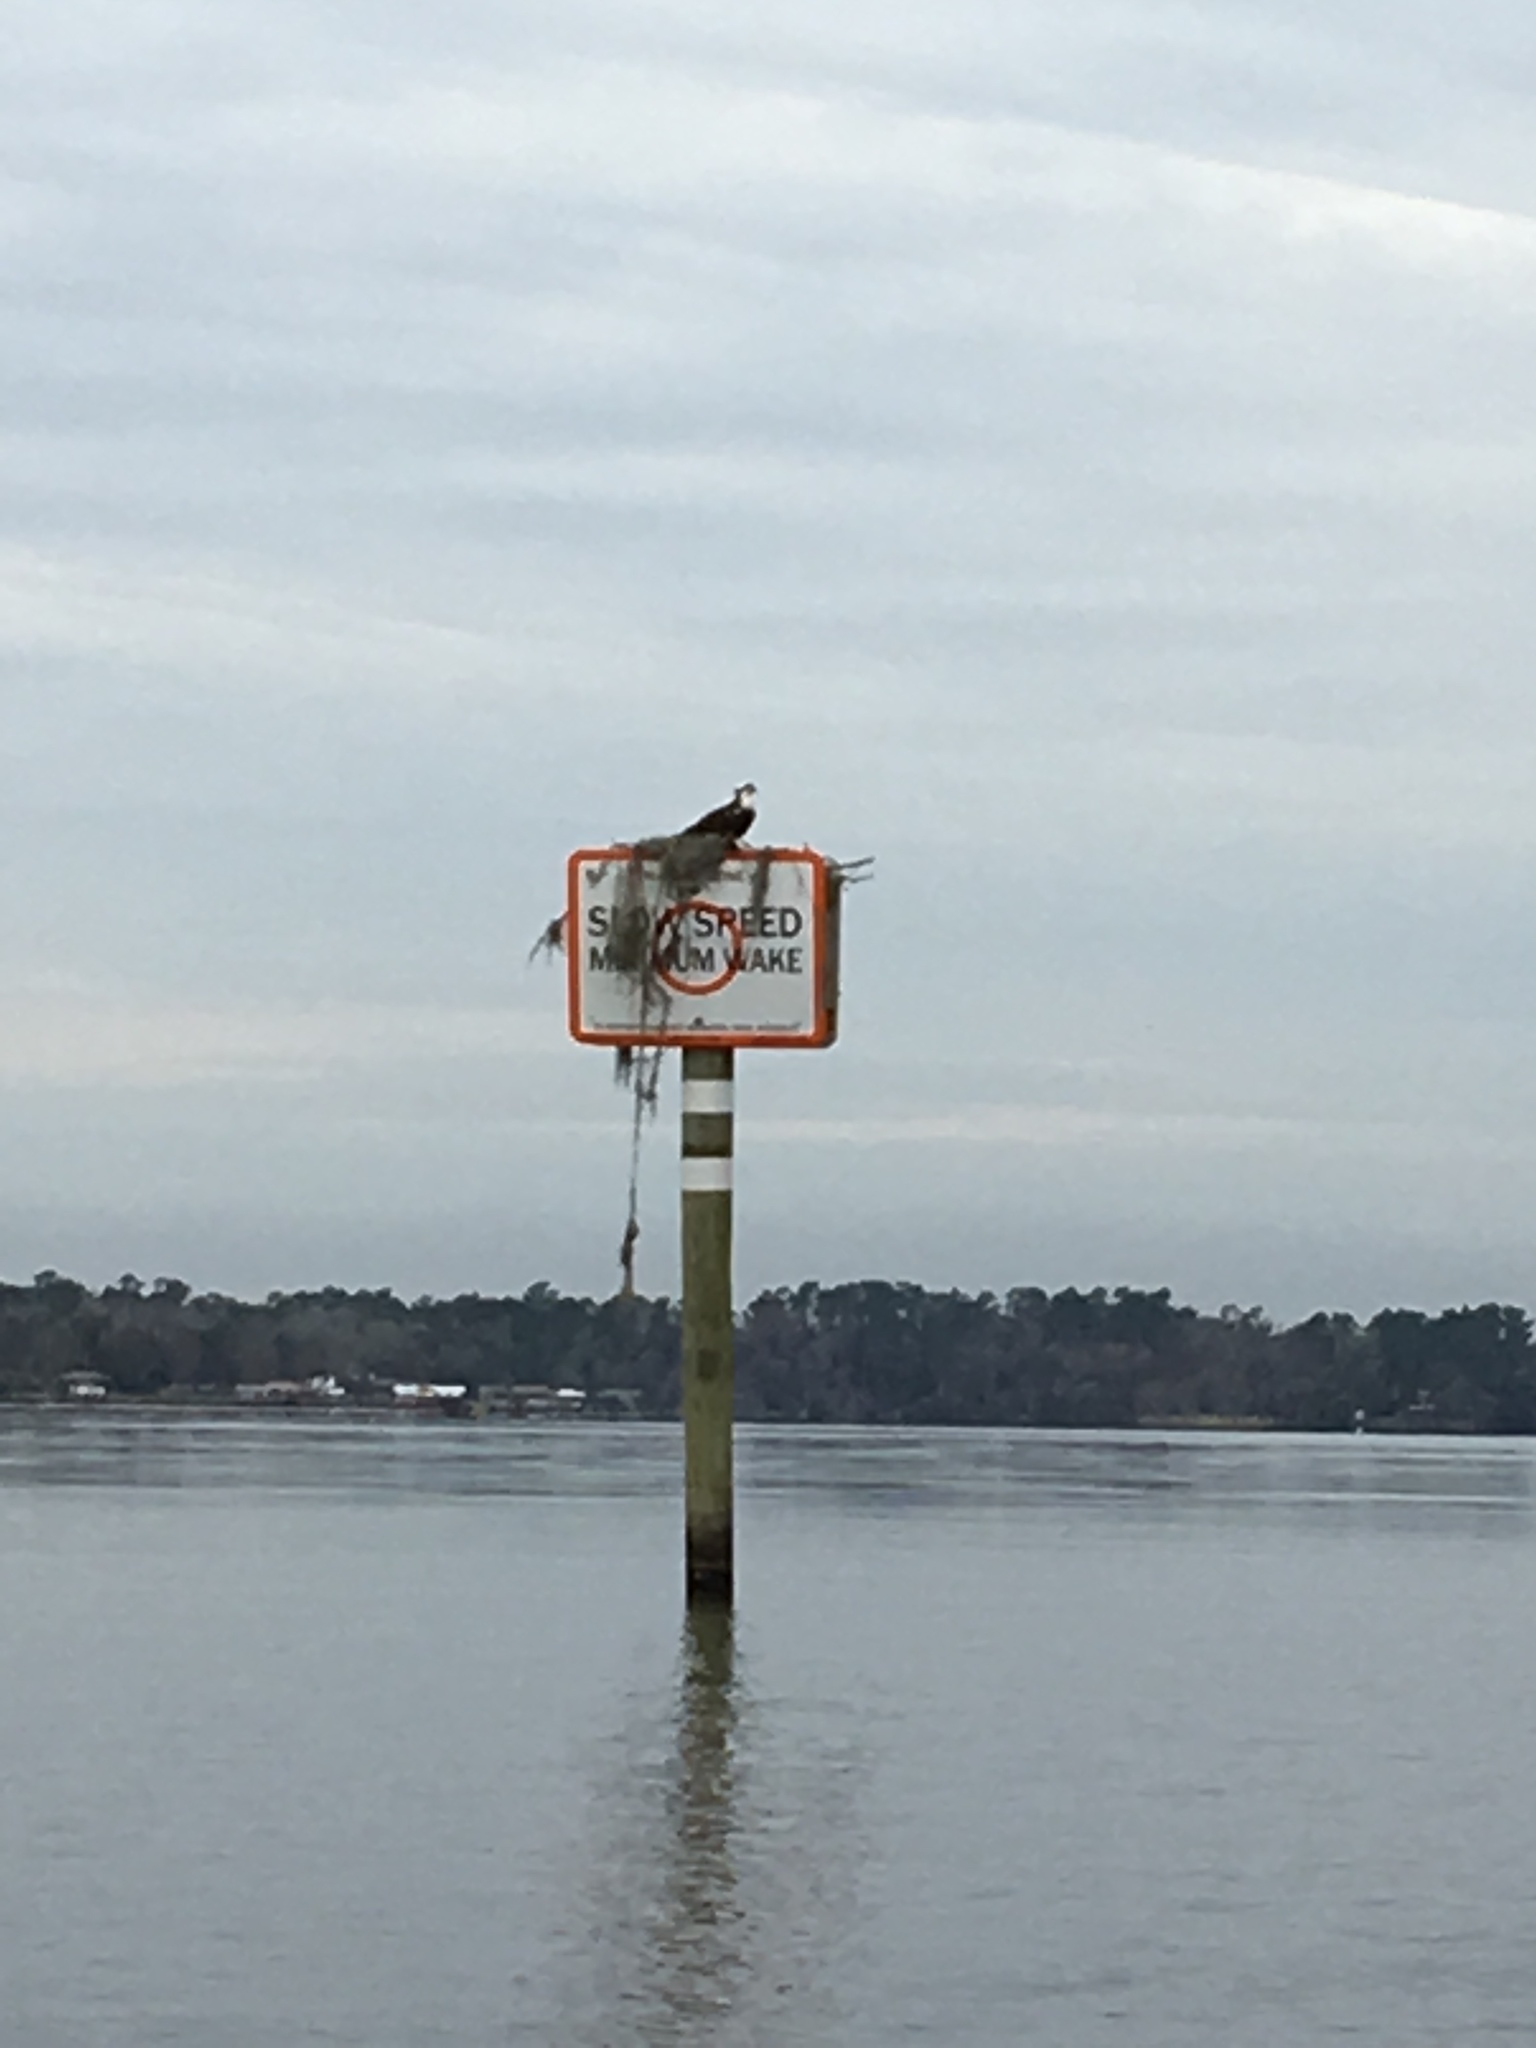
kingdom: Animalia
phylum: Chordata
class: Aves
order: Accipitriformes
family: Pandionidae
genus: Pandion
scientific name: Pandion haliaetus
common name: Osprey
